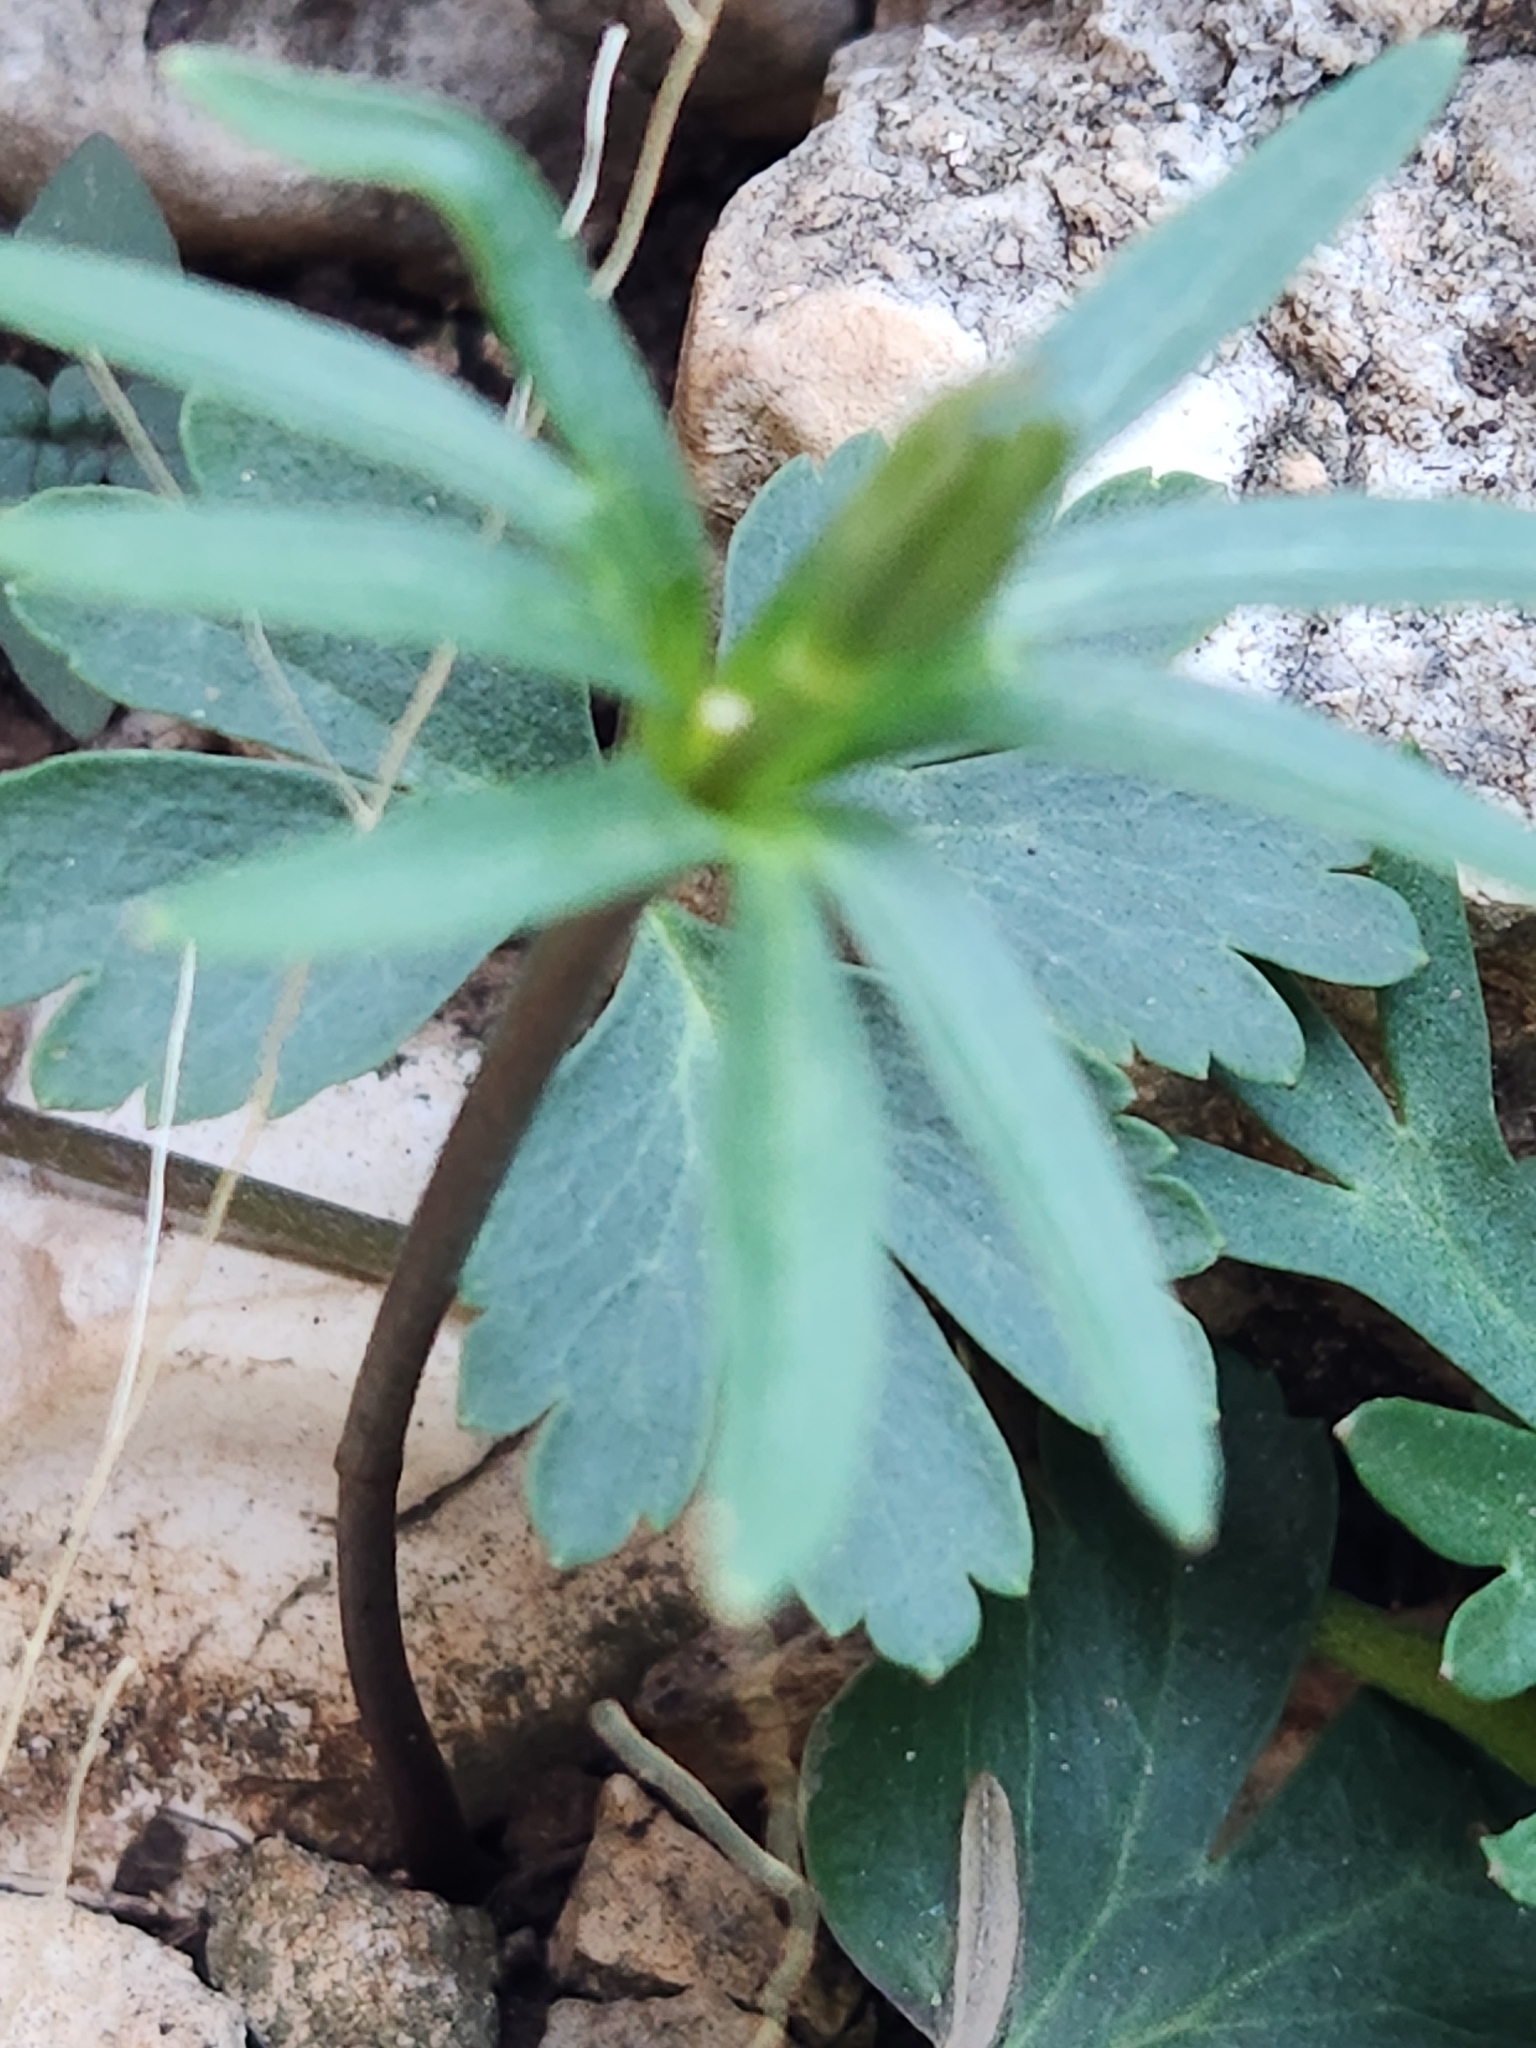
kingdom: Plantae
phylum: Tracheophyta
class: Magnoliopsida
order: Ranunculales
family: Ranunculaceae
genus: Anemone
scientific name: Anemone edwardsiana
